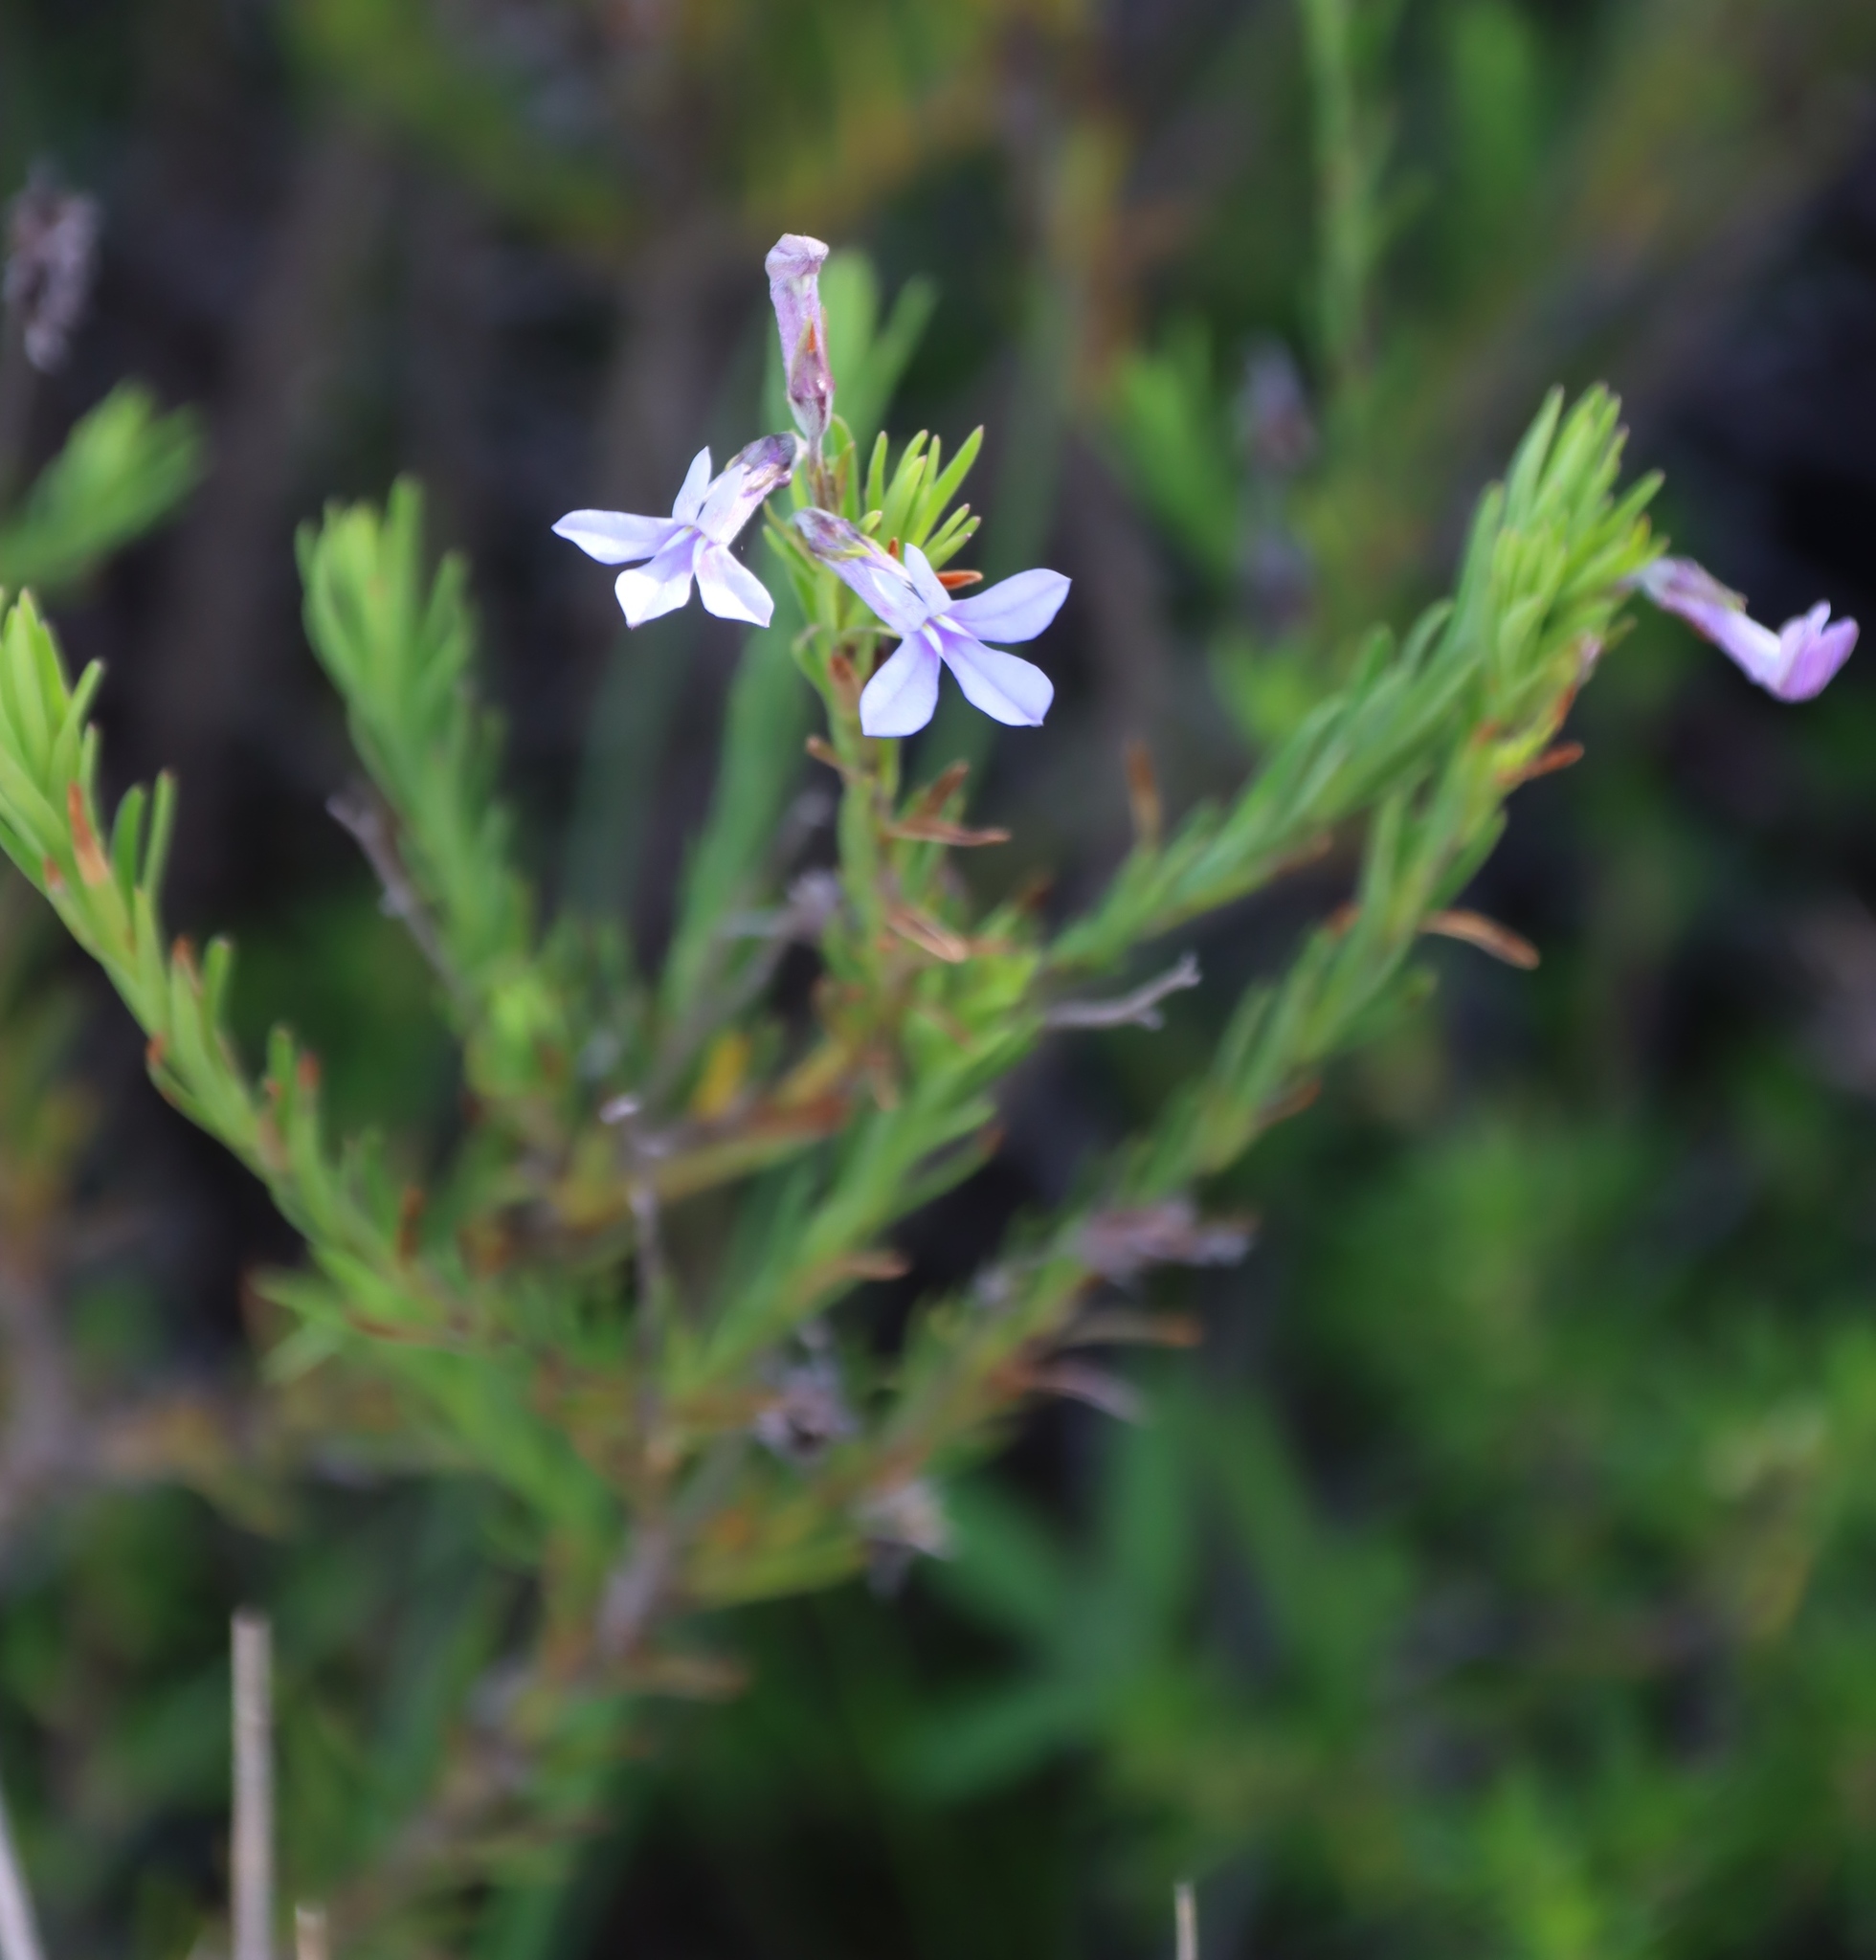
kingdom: Plantae
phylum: Tracheophyta
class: Magnoliopsida
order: Asterales
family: Campanulaceae
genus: Lobelia
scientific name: Lobelia pinifolia
